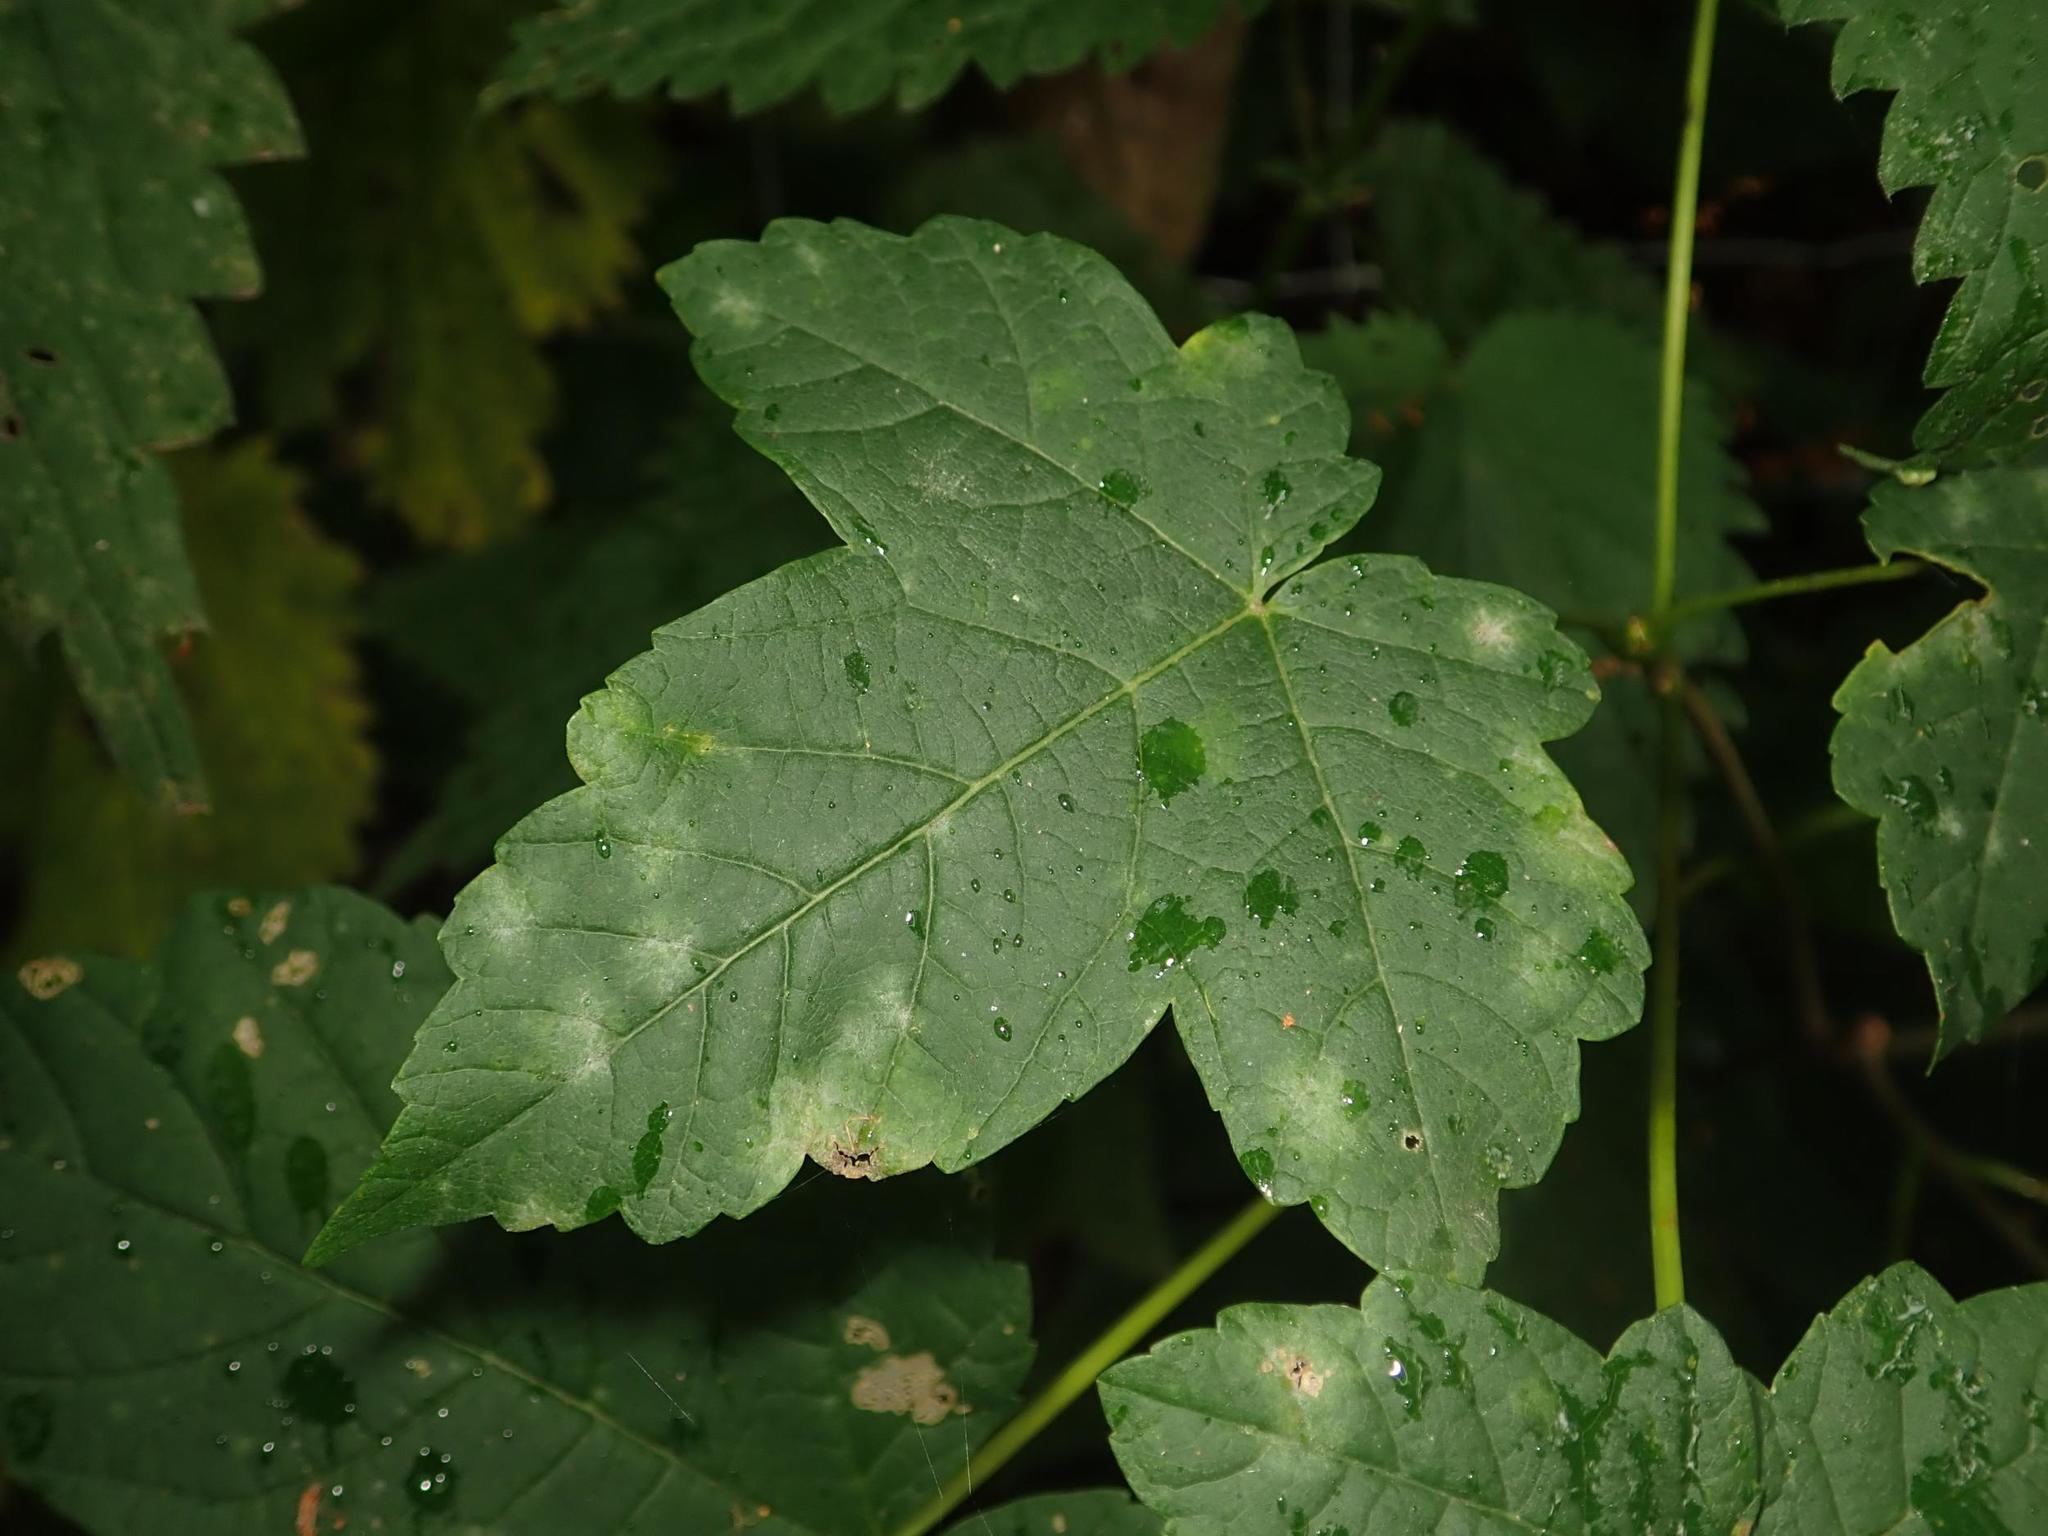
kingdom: Plantae
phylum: Tracheophyta
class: Magnoliopsida
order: Sapindales
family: Sapindaceae
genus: Acer
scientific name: Acer pseudoplatanus
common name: Sycamore
